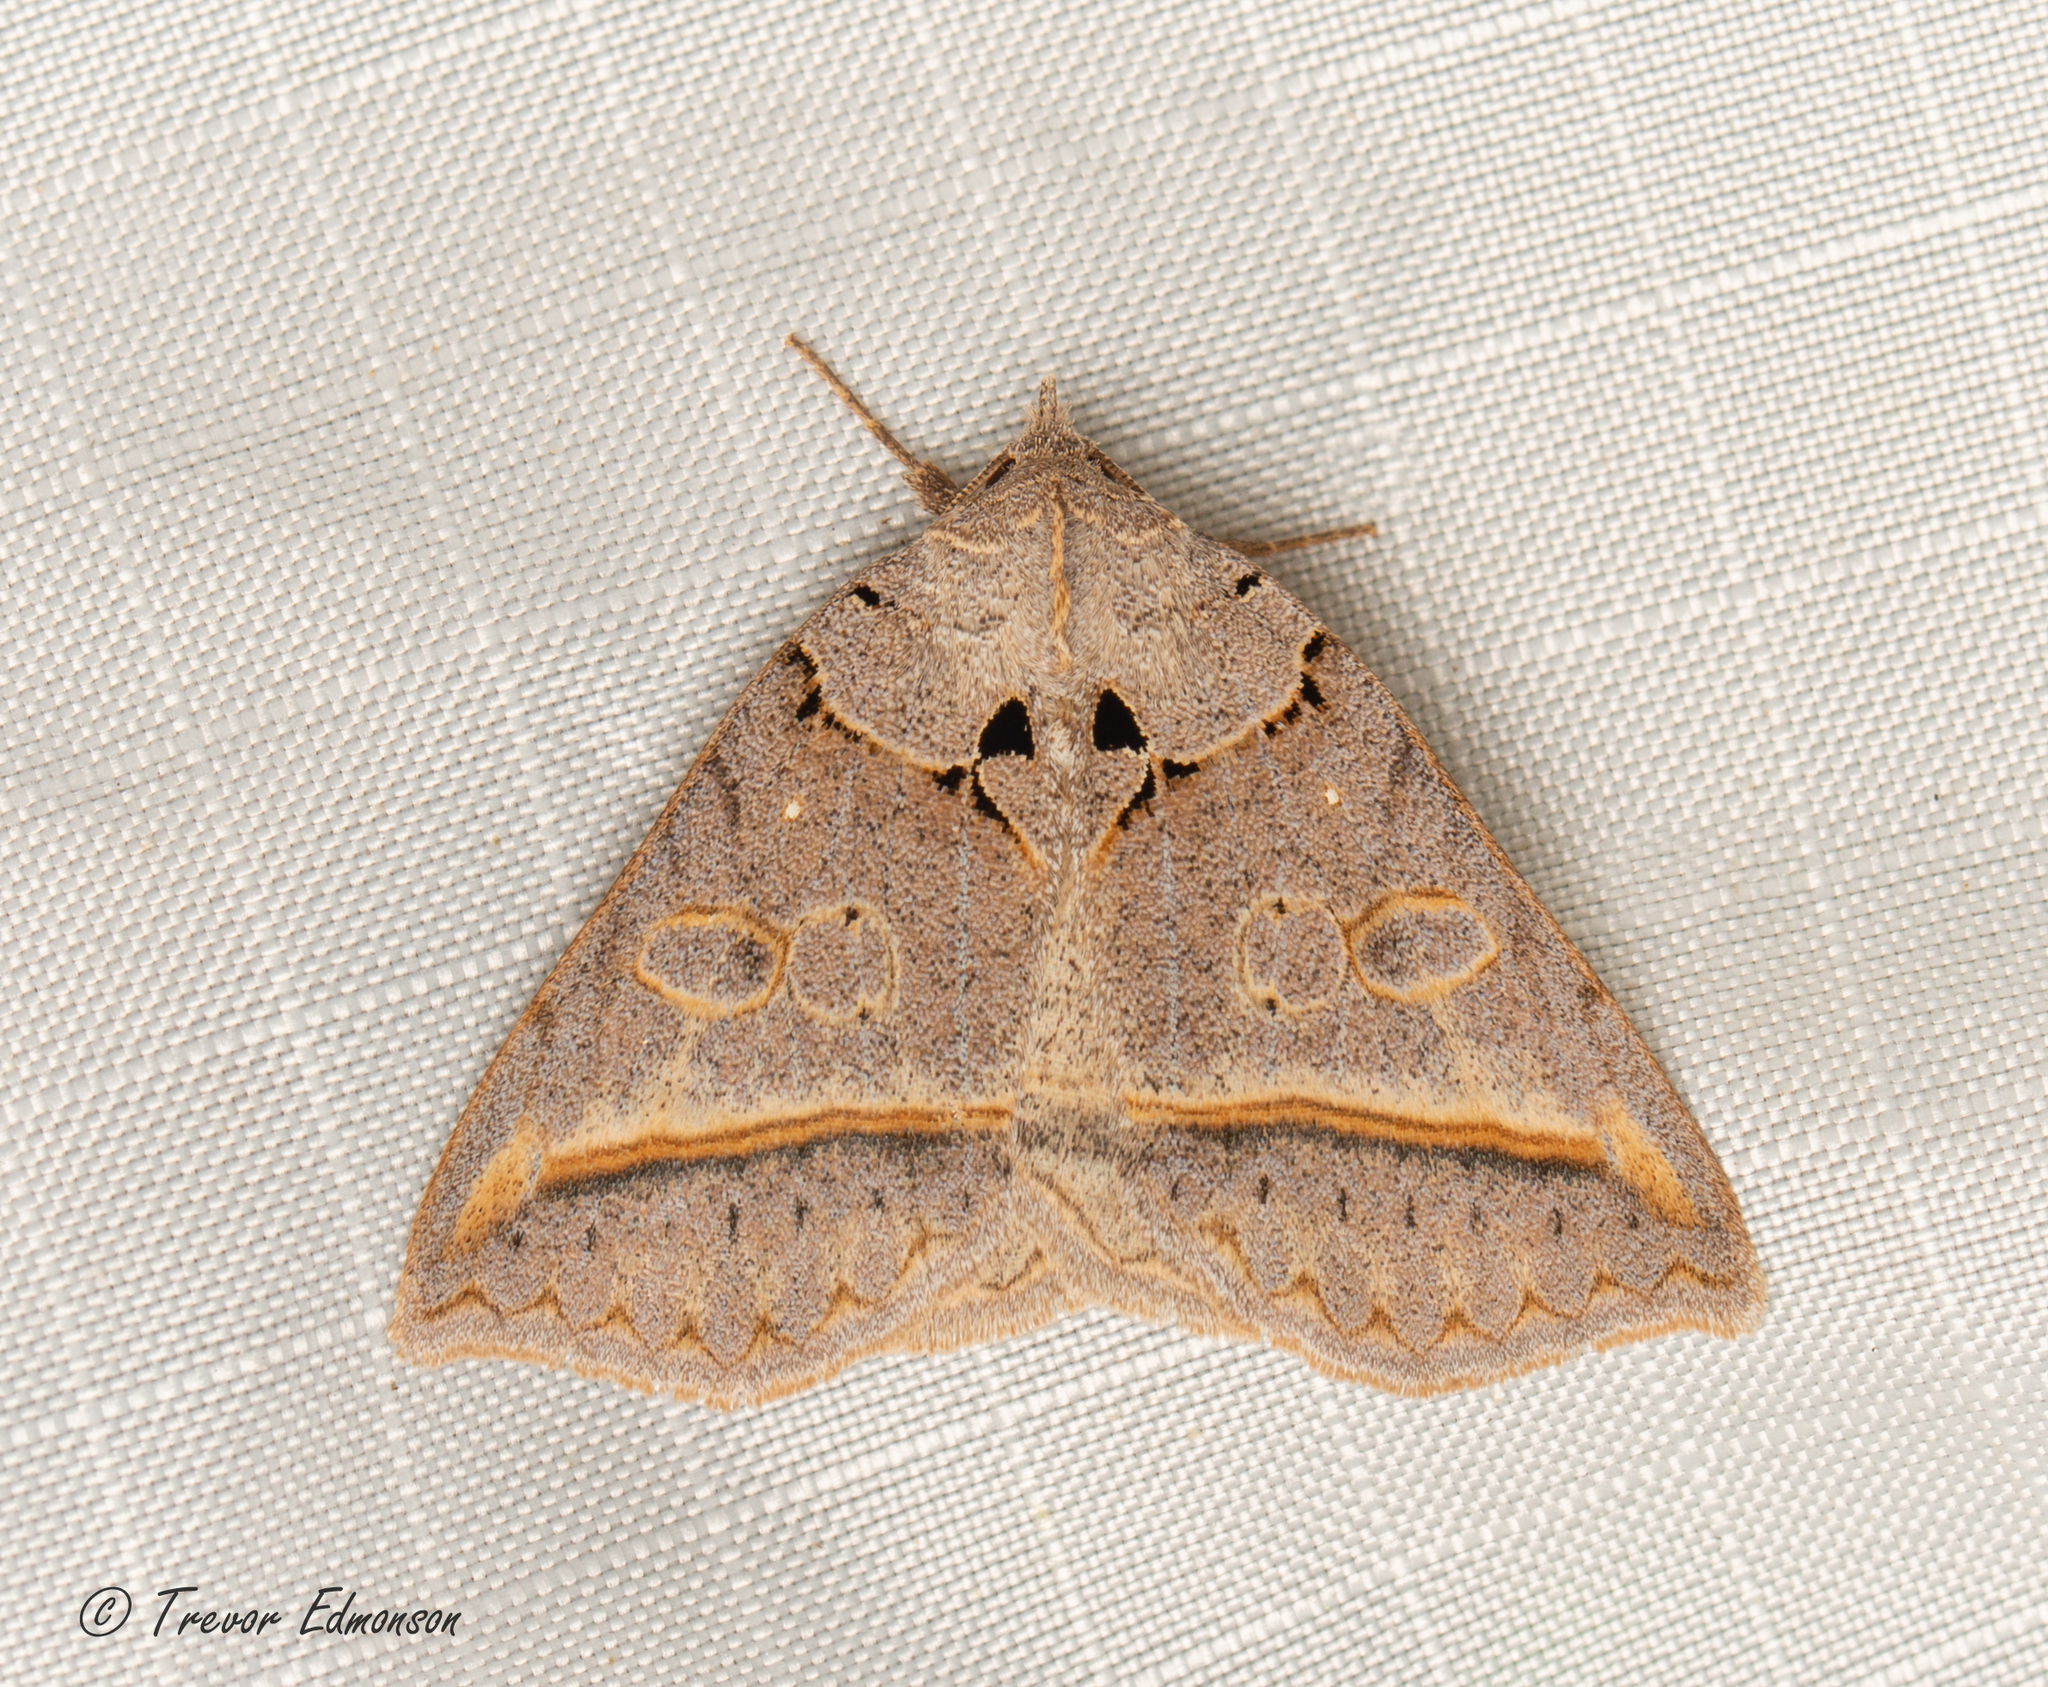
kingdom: Animalia
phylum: Arthropoda
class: Insecta
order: Lepidoptera
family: Erebidae
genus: Celiptera
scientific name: Celiptera frustulum
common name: Black bit moth
